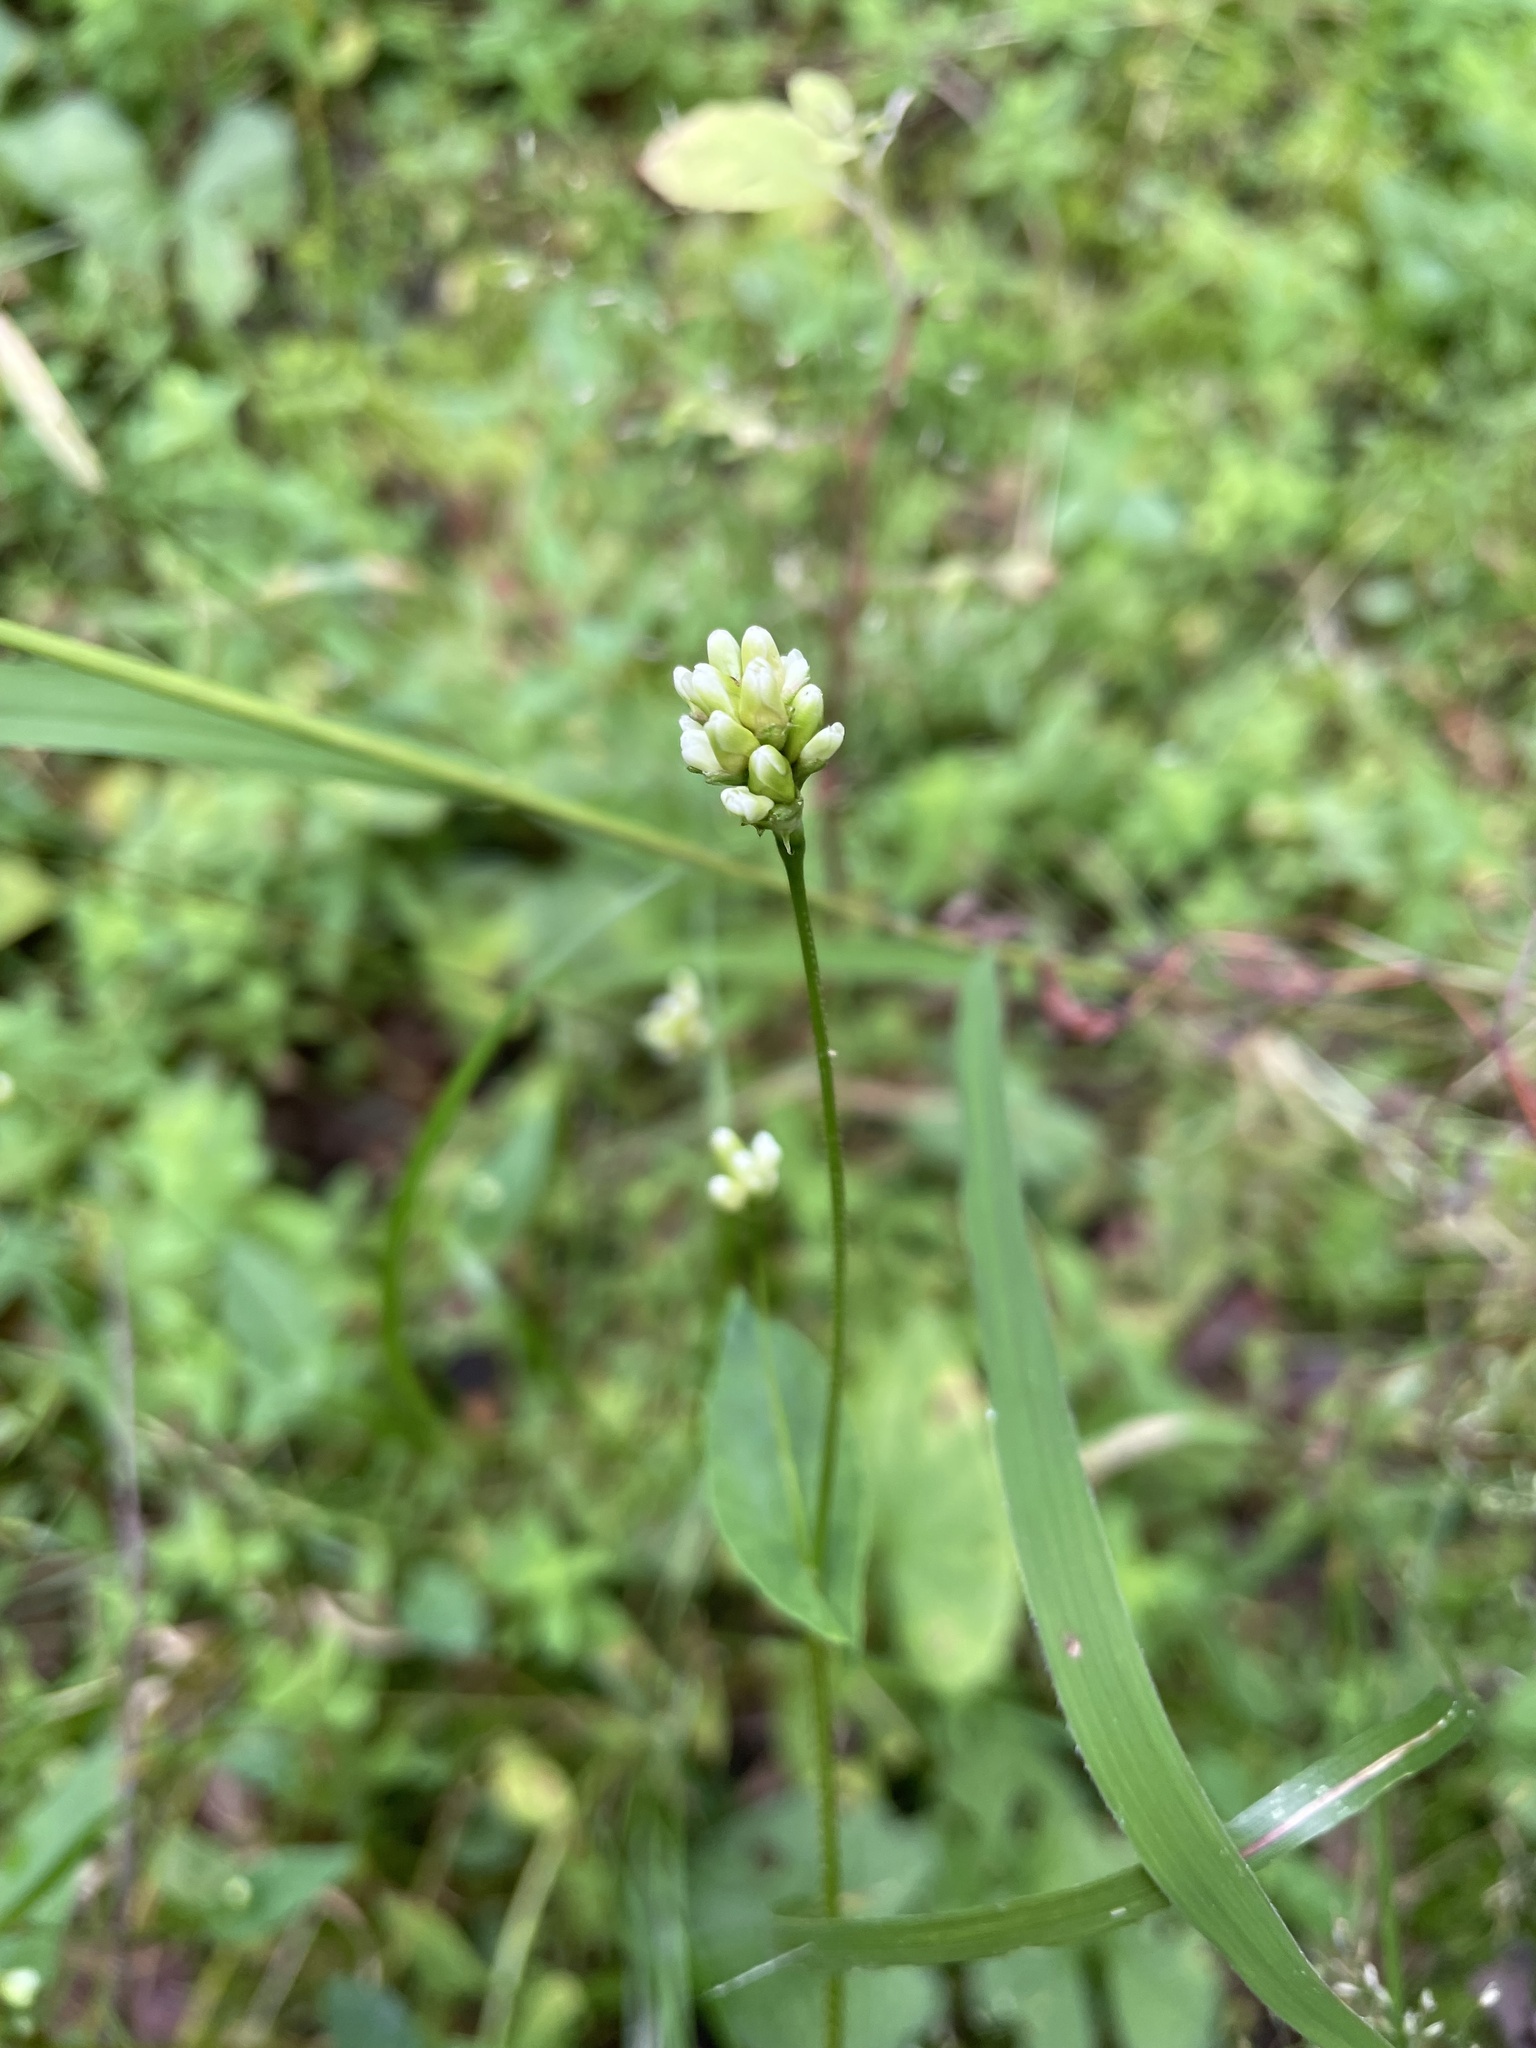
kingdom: Plantae
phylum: Tracheophyta
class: Magnoliopsida
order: Caryophyllales
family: Polygonaceae
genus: Persicaria
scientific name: Persicaria sagittata
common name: American tearthumb
